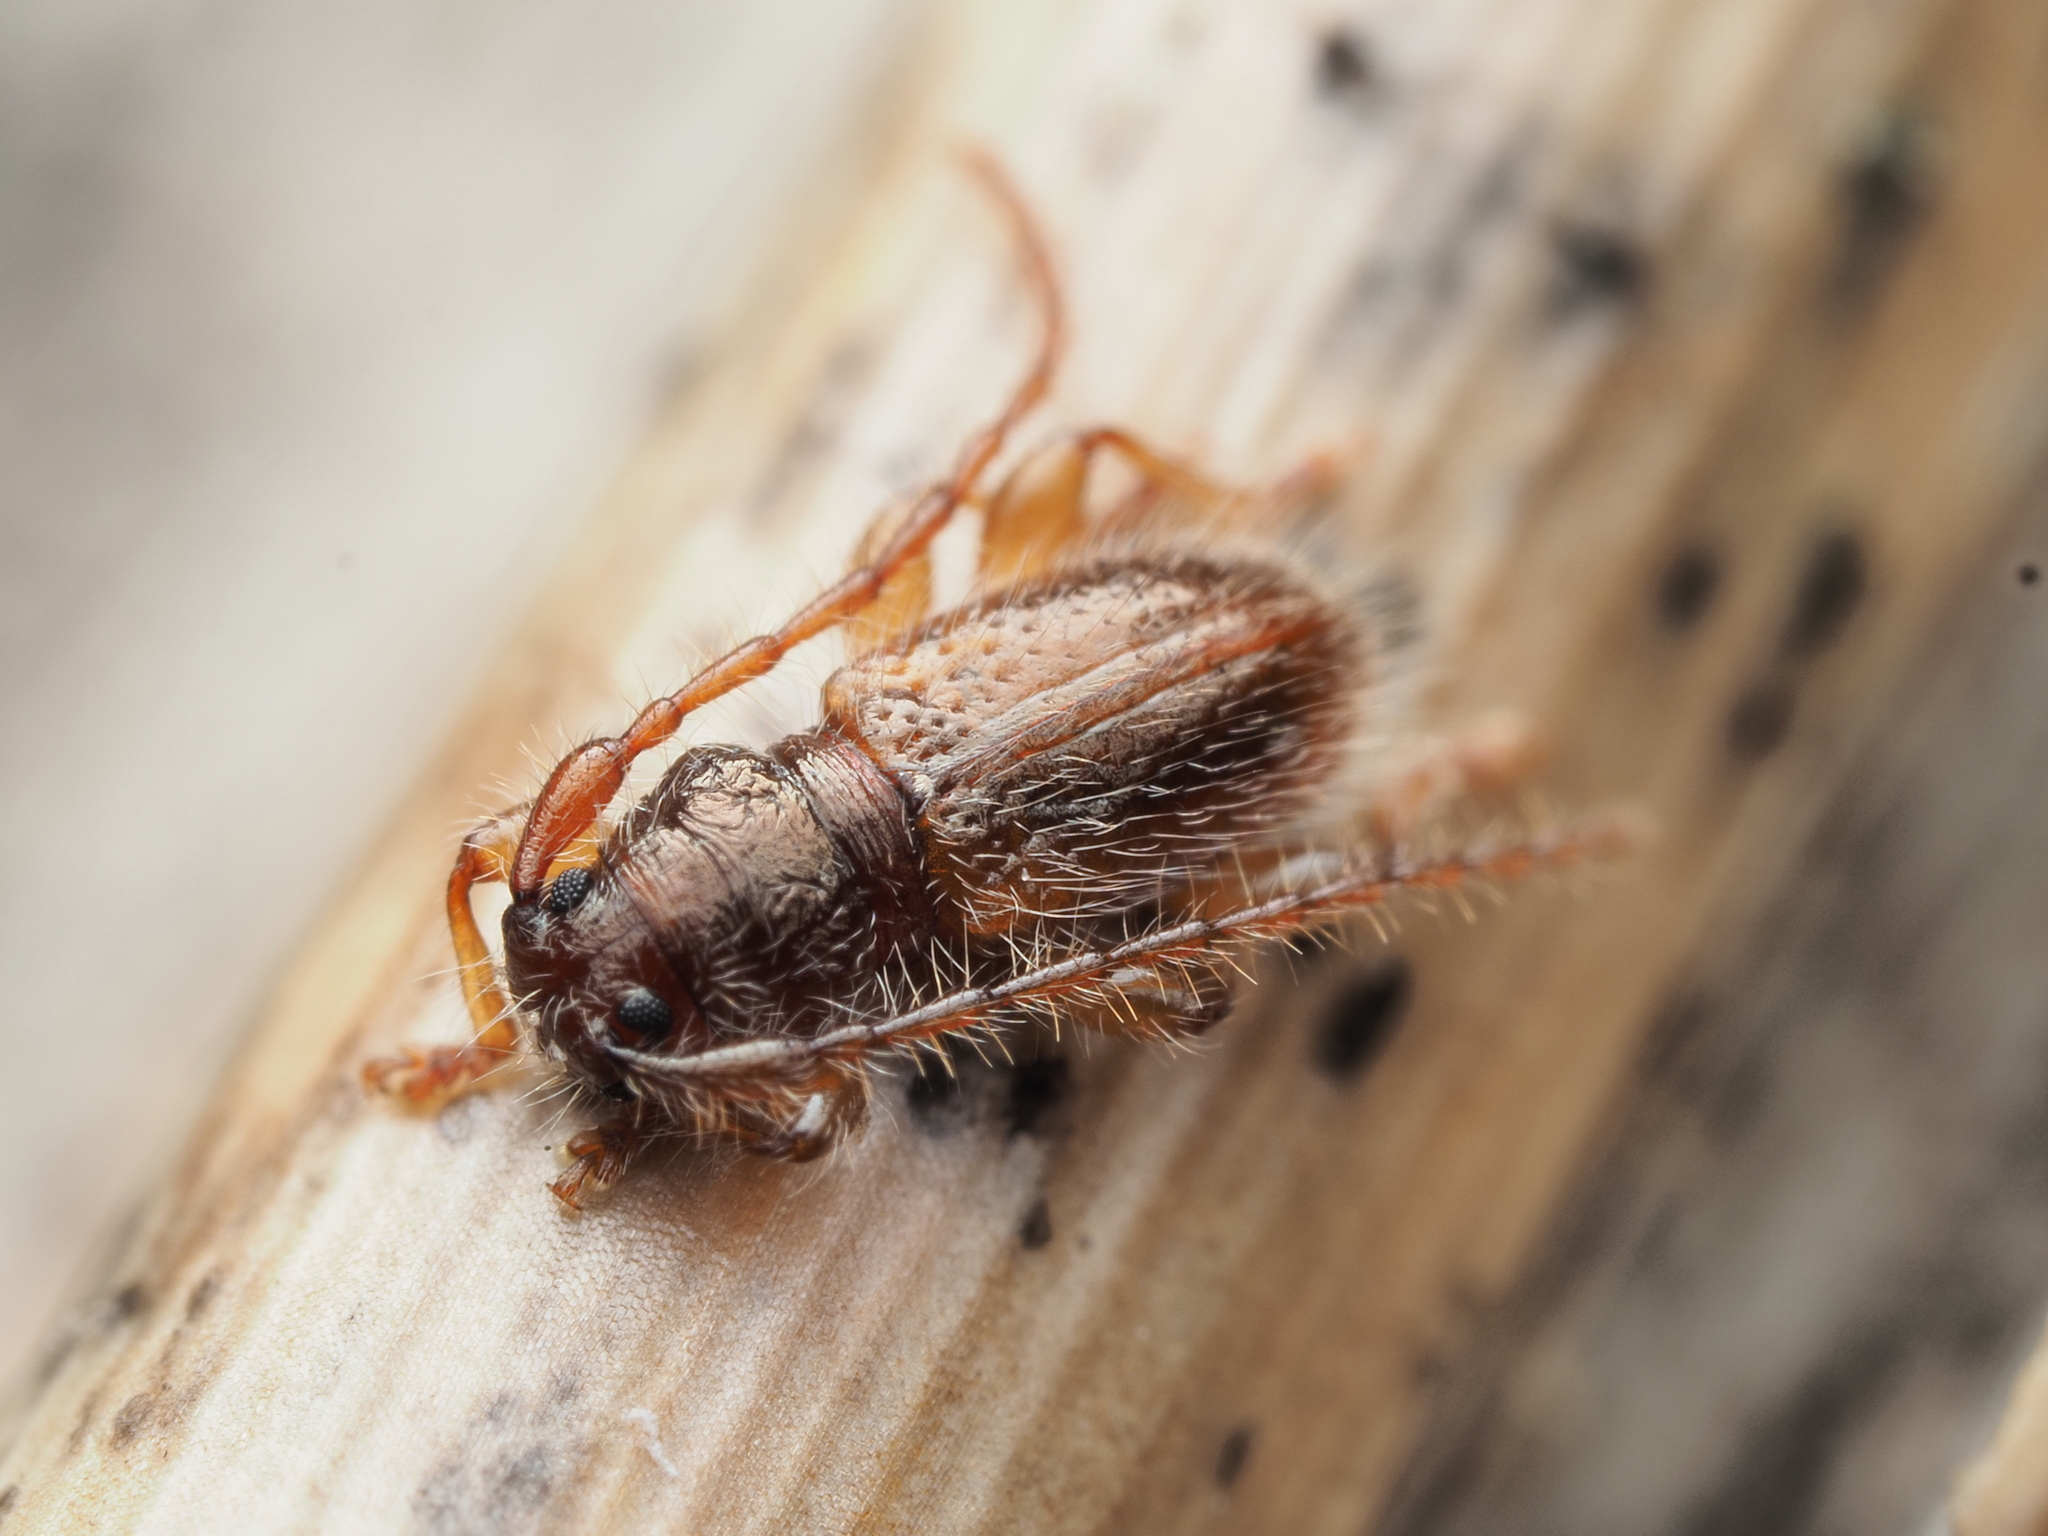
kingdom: Animalia
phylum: Arthropoda
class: Insecta
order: Coleoptera
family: Cerambycidae
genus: Microlamia
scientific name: Microlamia pygmaea
